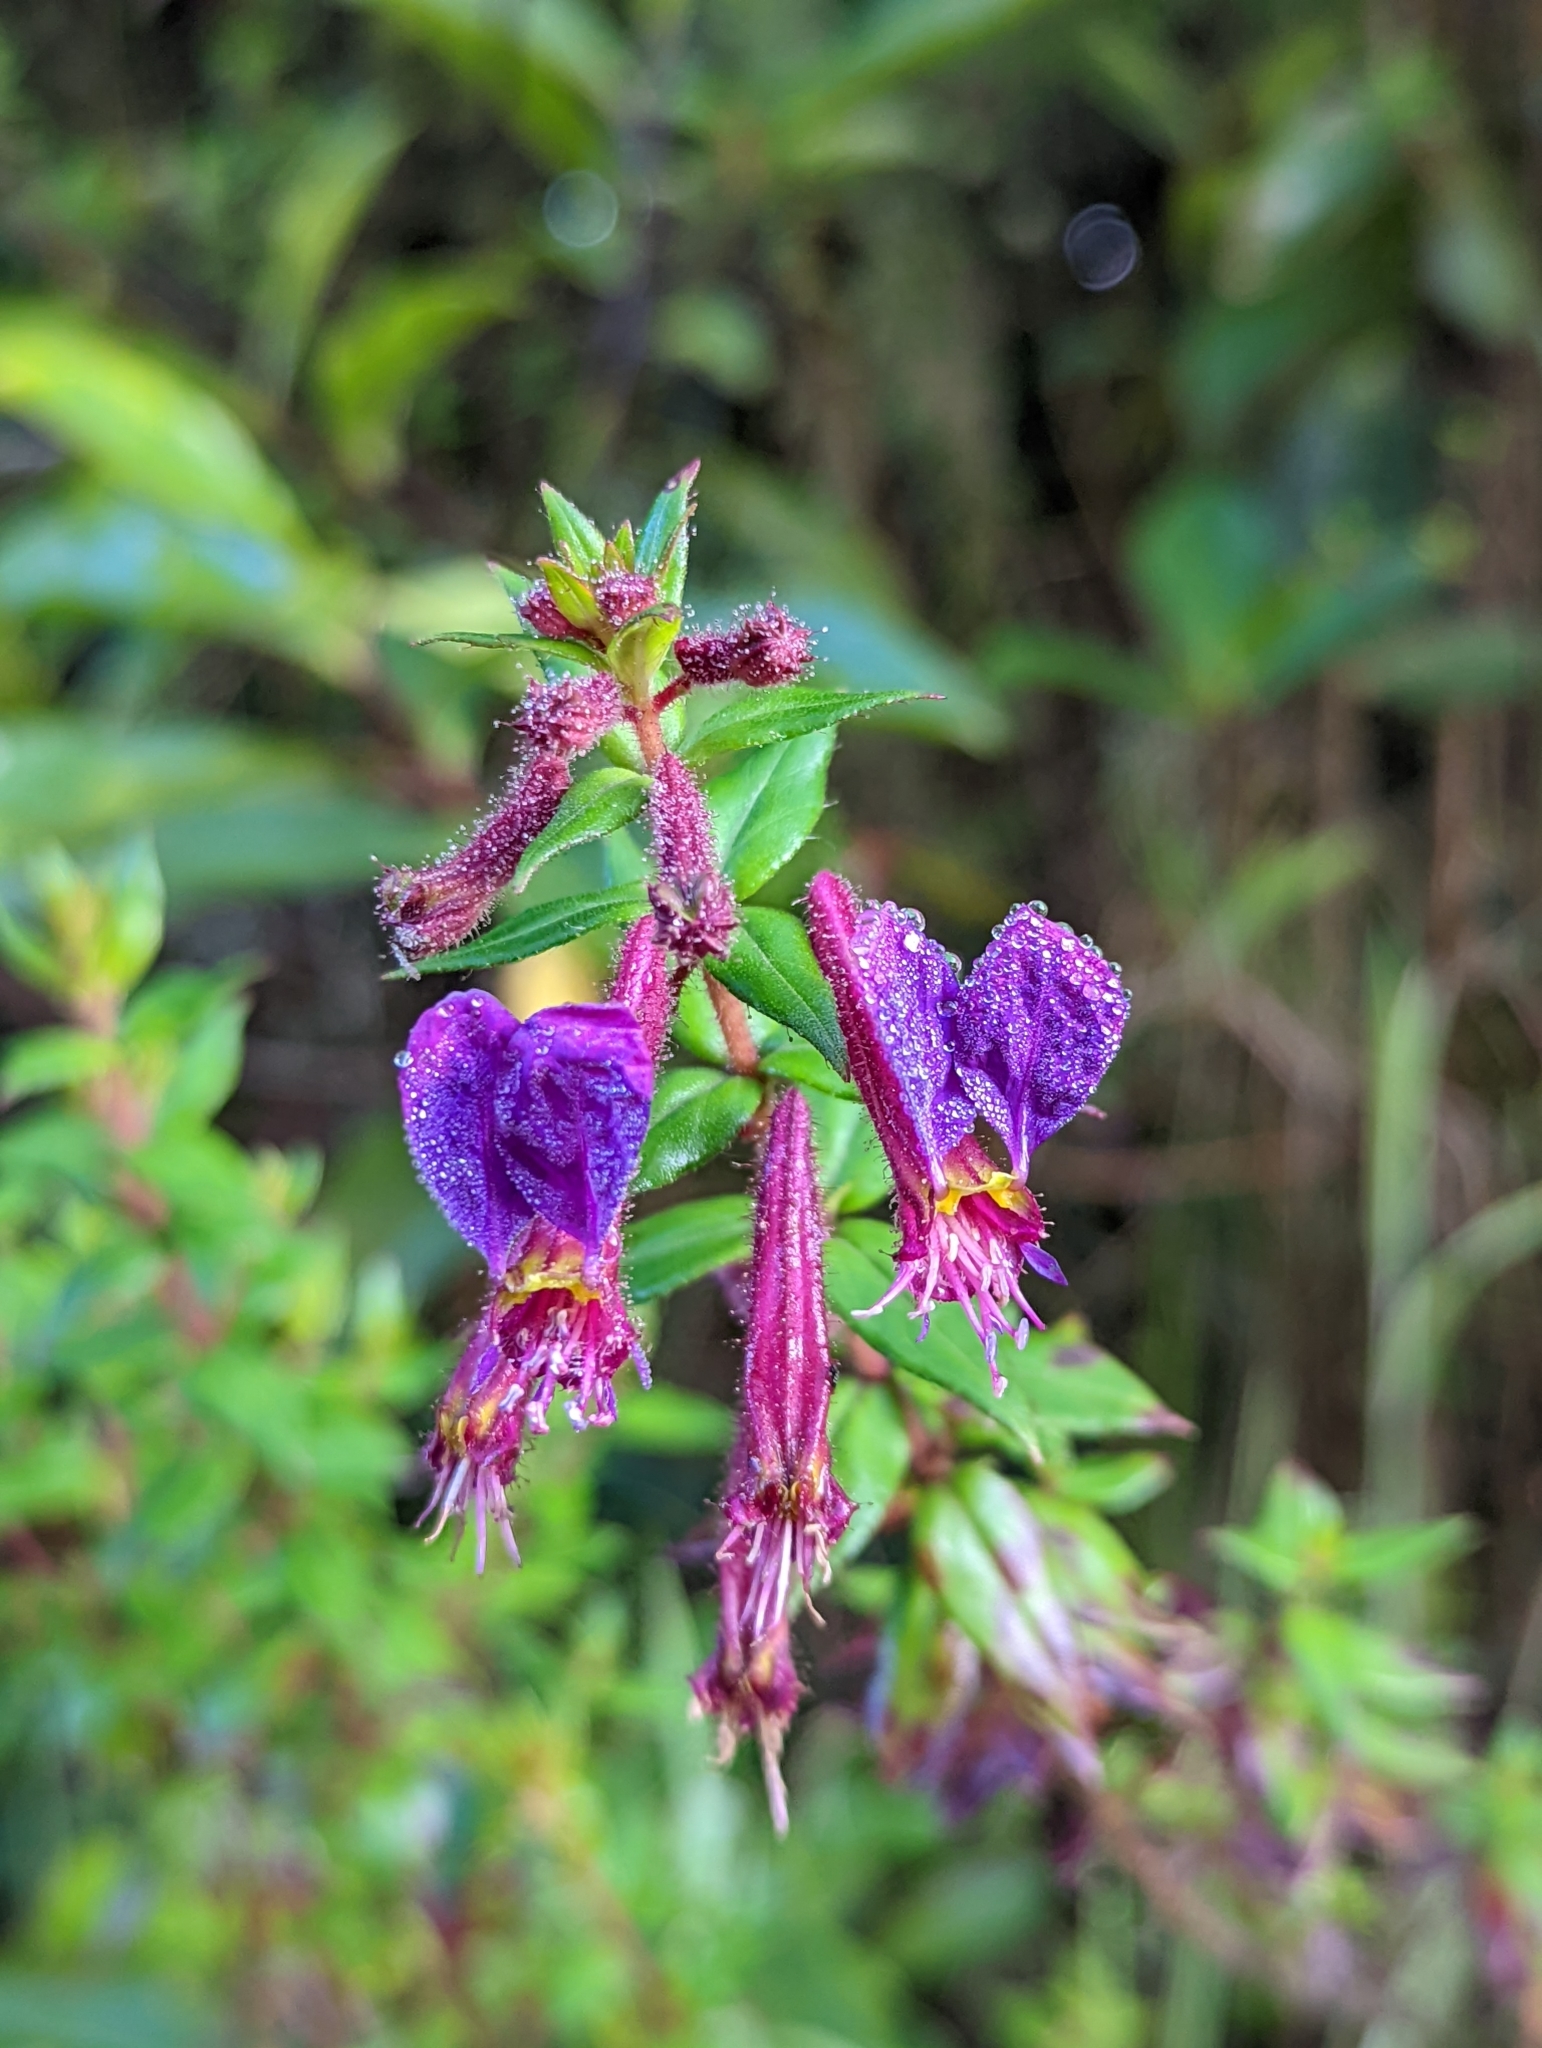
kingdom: Plantae
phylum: Tracheophyta
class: Magnoliopsida
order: Myrtales
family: Lythraceae
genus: Cuphea
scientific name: Cuphea dipetala
